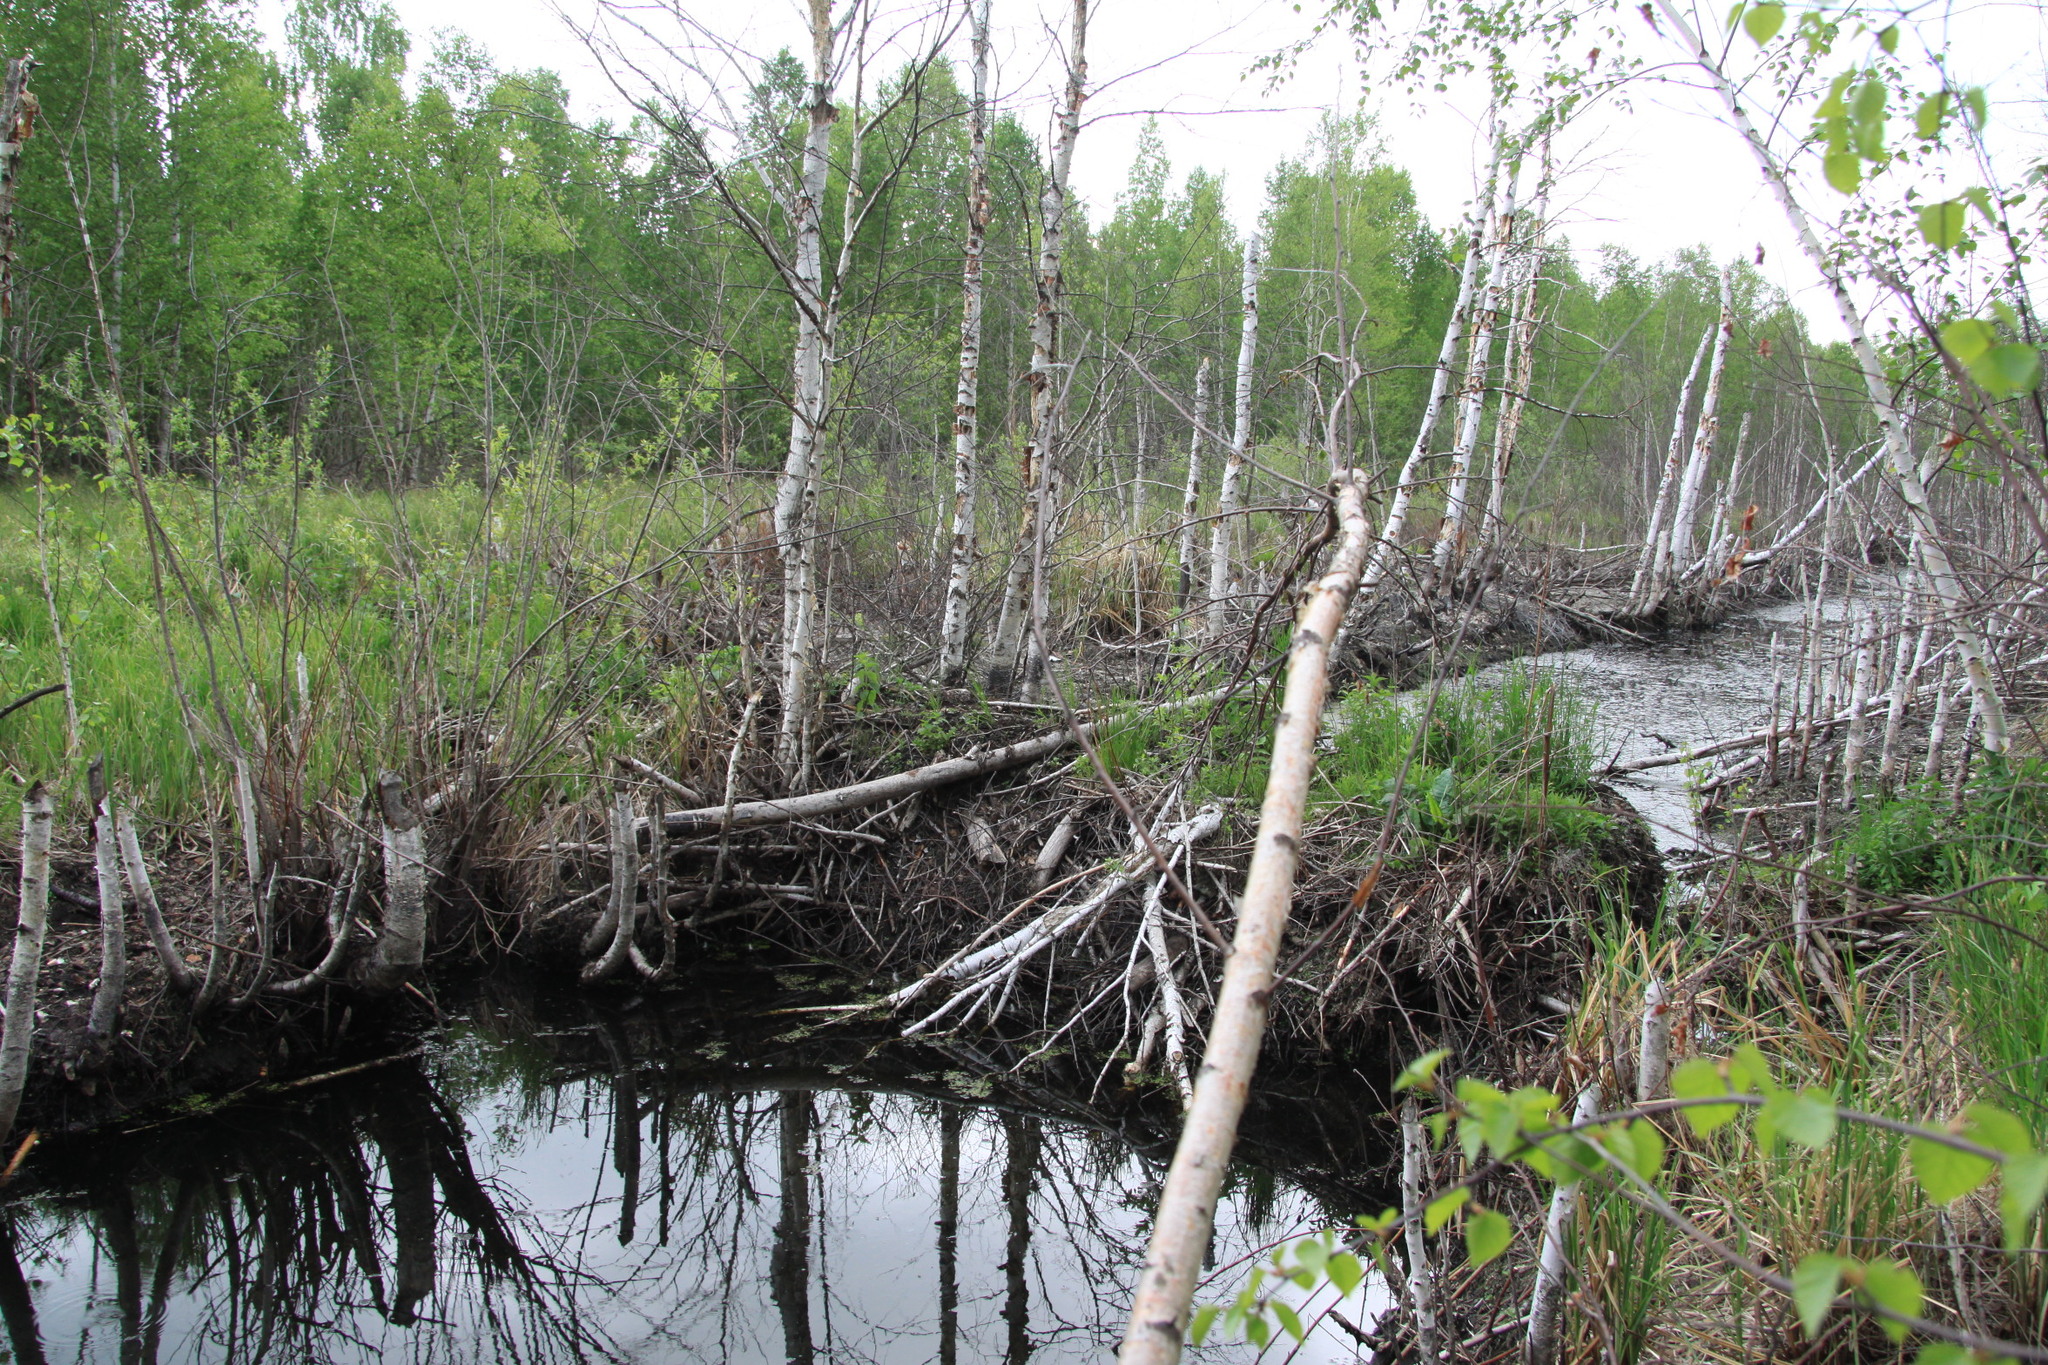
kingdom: Animalia
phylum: Chordata
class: Mammalia
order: Rodentia
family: Castoridae
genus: Castor
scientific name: Castor fiber
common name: Eurasian beaver
